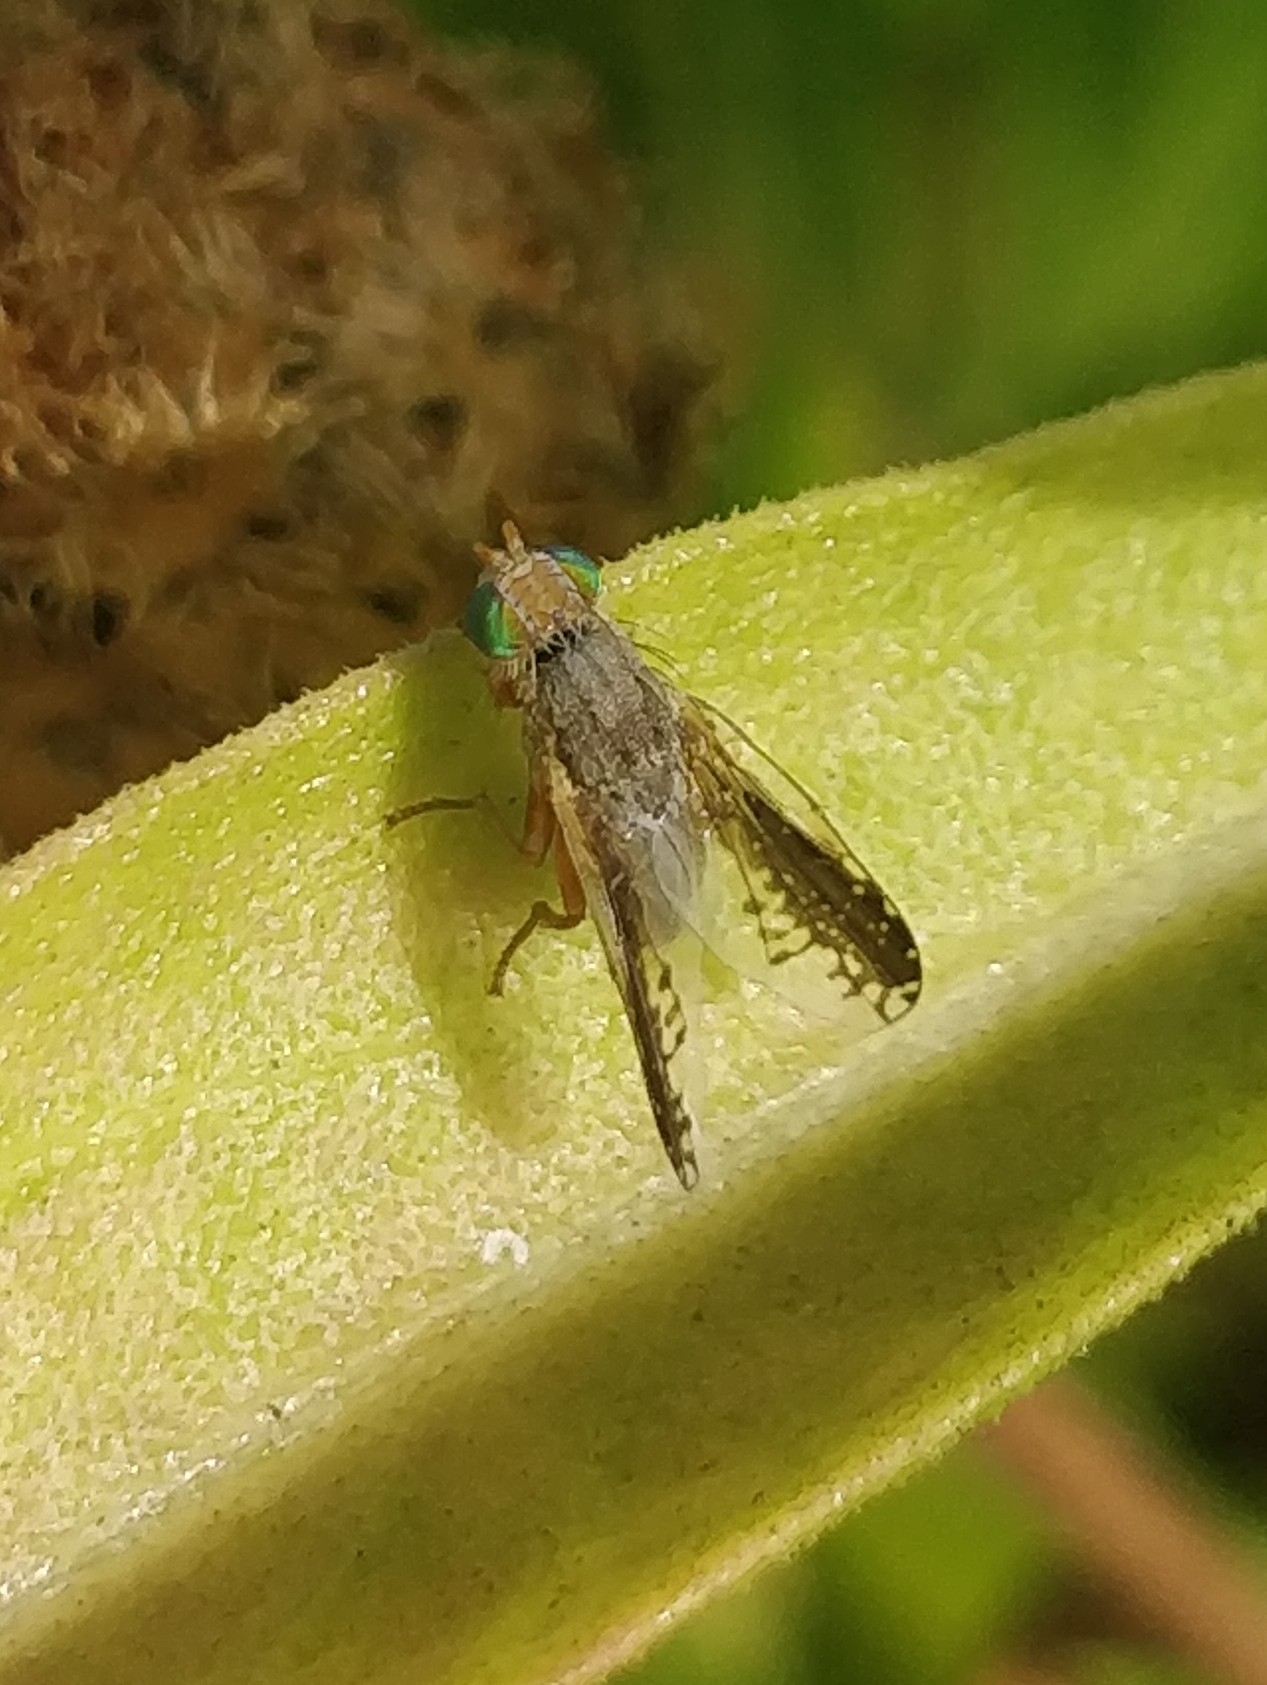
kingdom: Animalia
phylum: Arthropoda
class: Insecta
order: Diptera
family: Tephritidae
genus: Acanthiophilus
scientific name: Acanthiophilus walkeri
